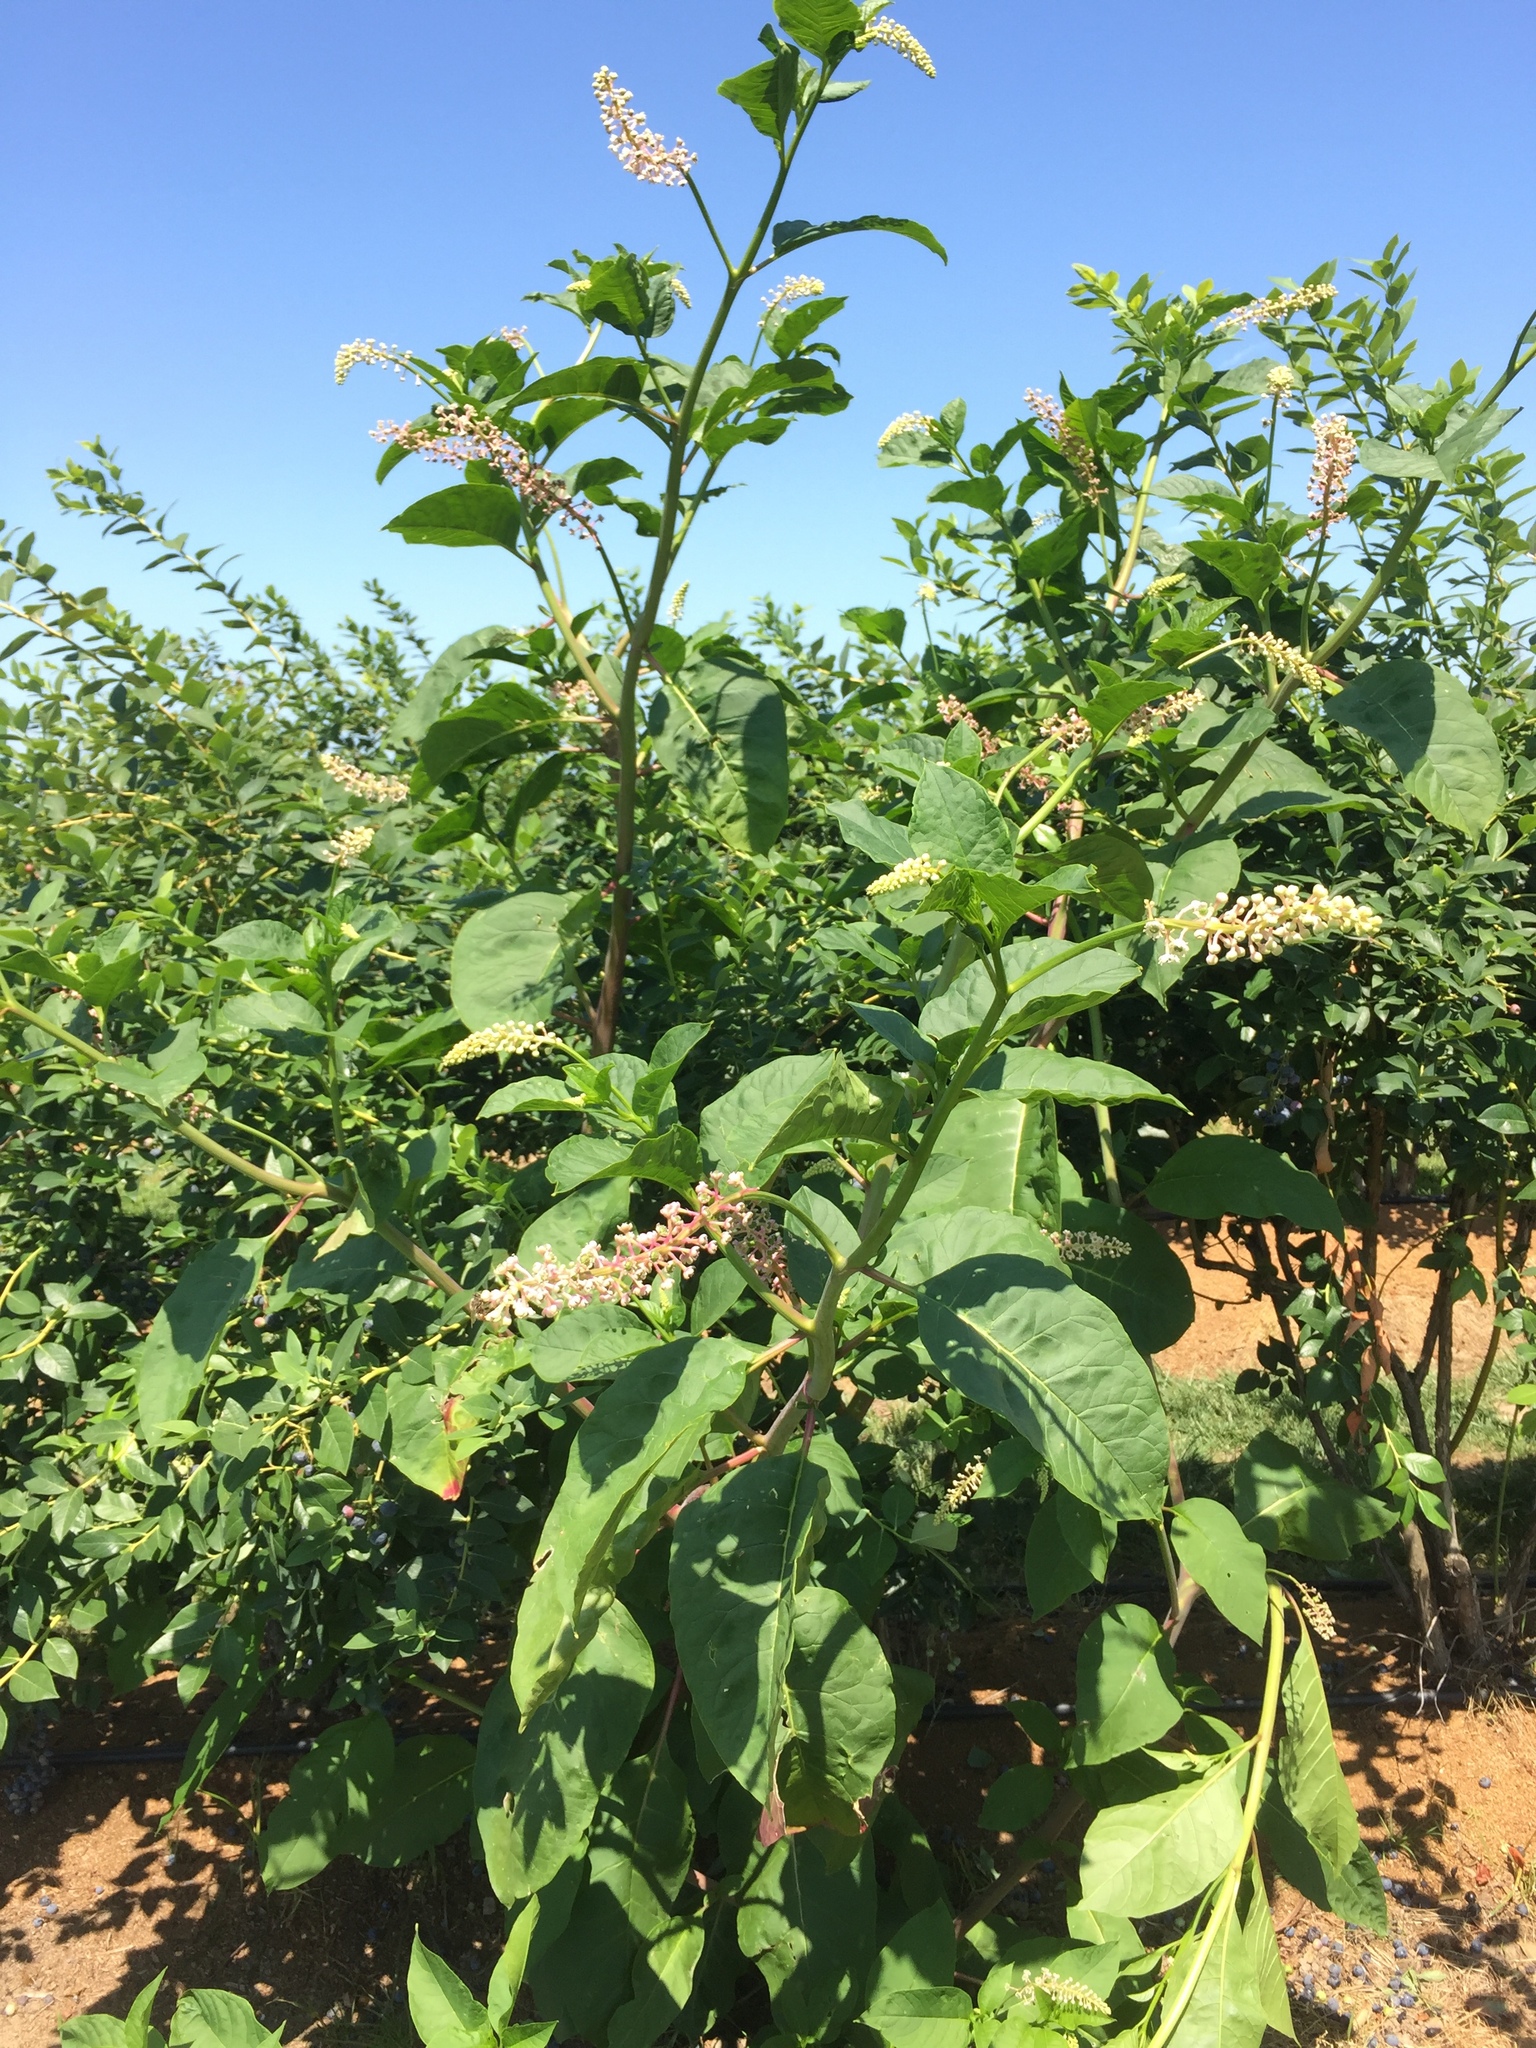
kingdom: Plantae
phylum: Tracheophyta
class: Magnoliopsida
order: Caryophyllales
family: Phytolaccaceae
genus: Phytolacca
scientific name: Phytolacca americana
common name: American pokeweed
